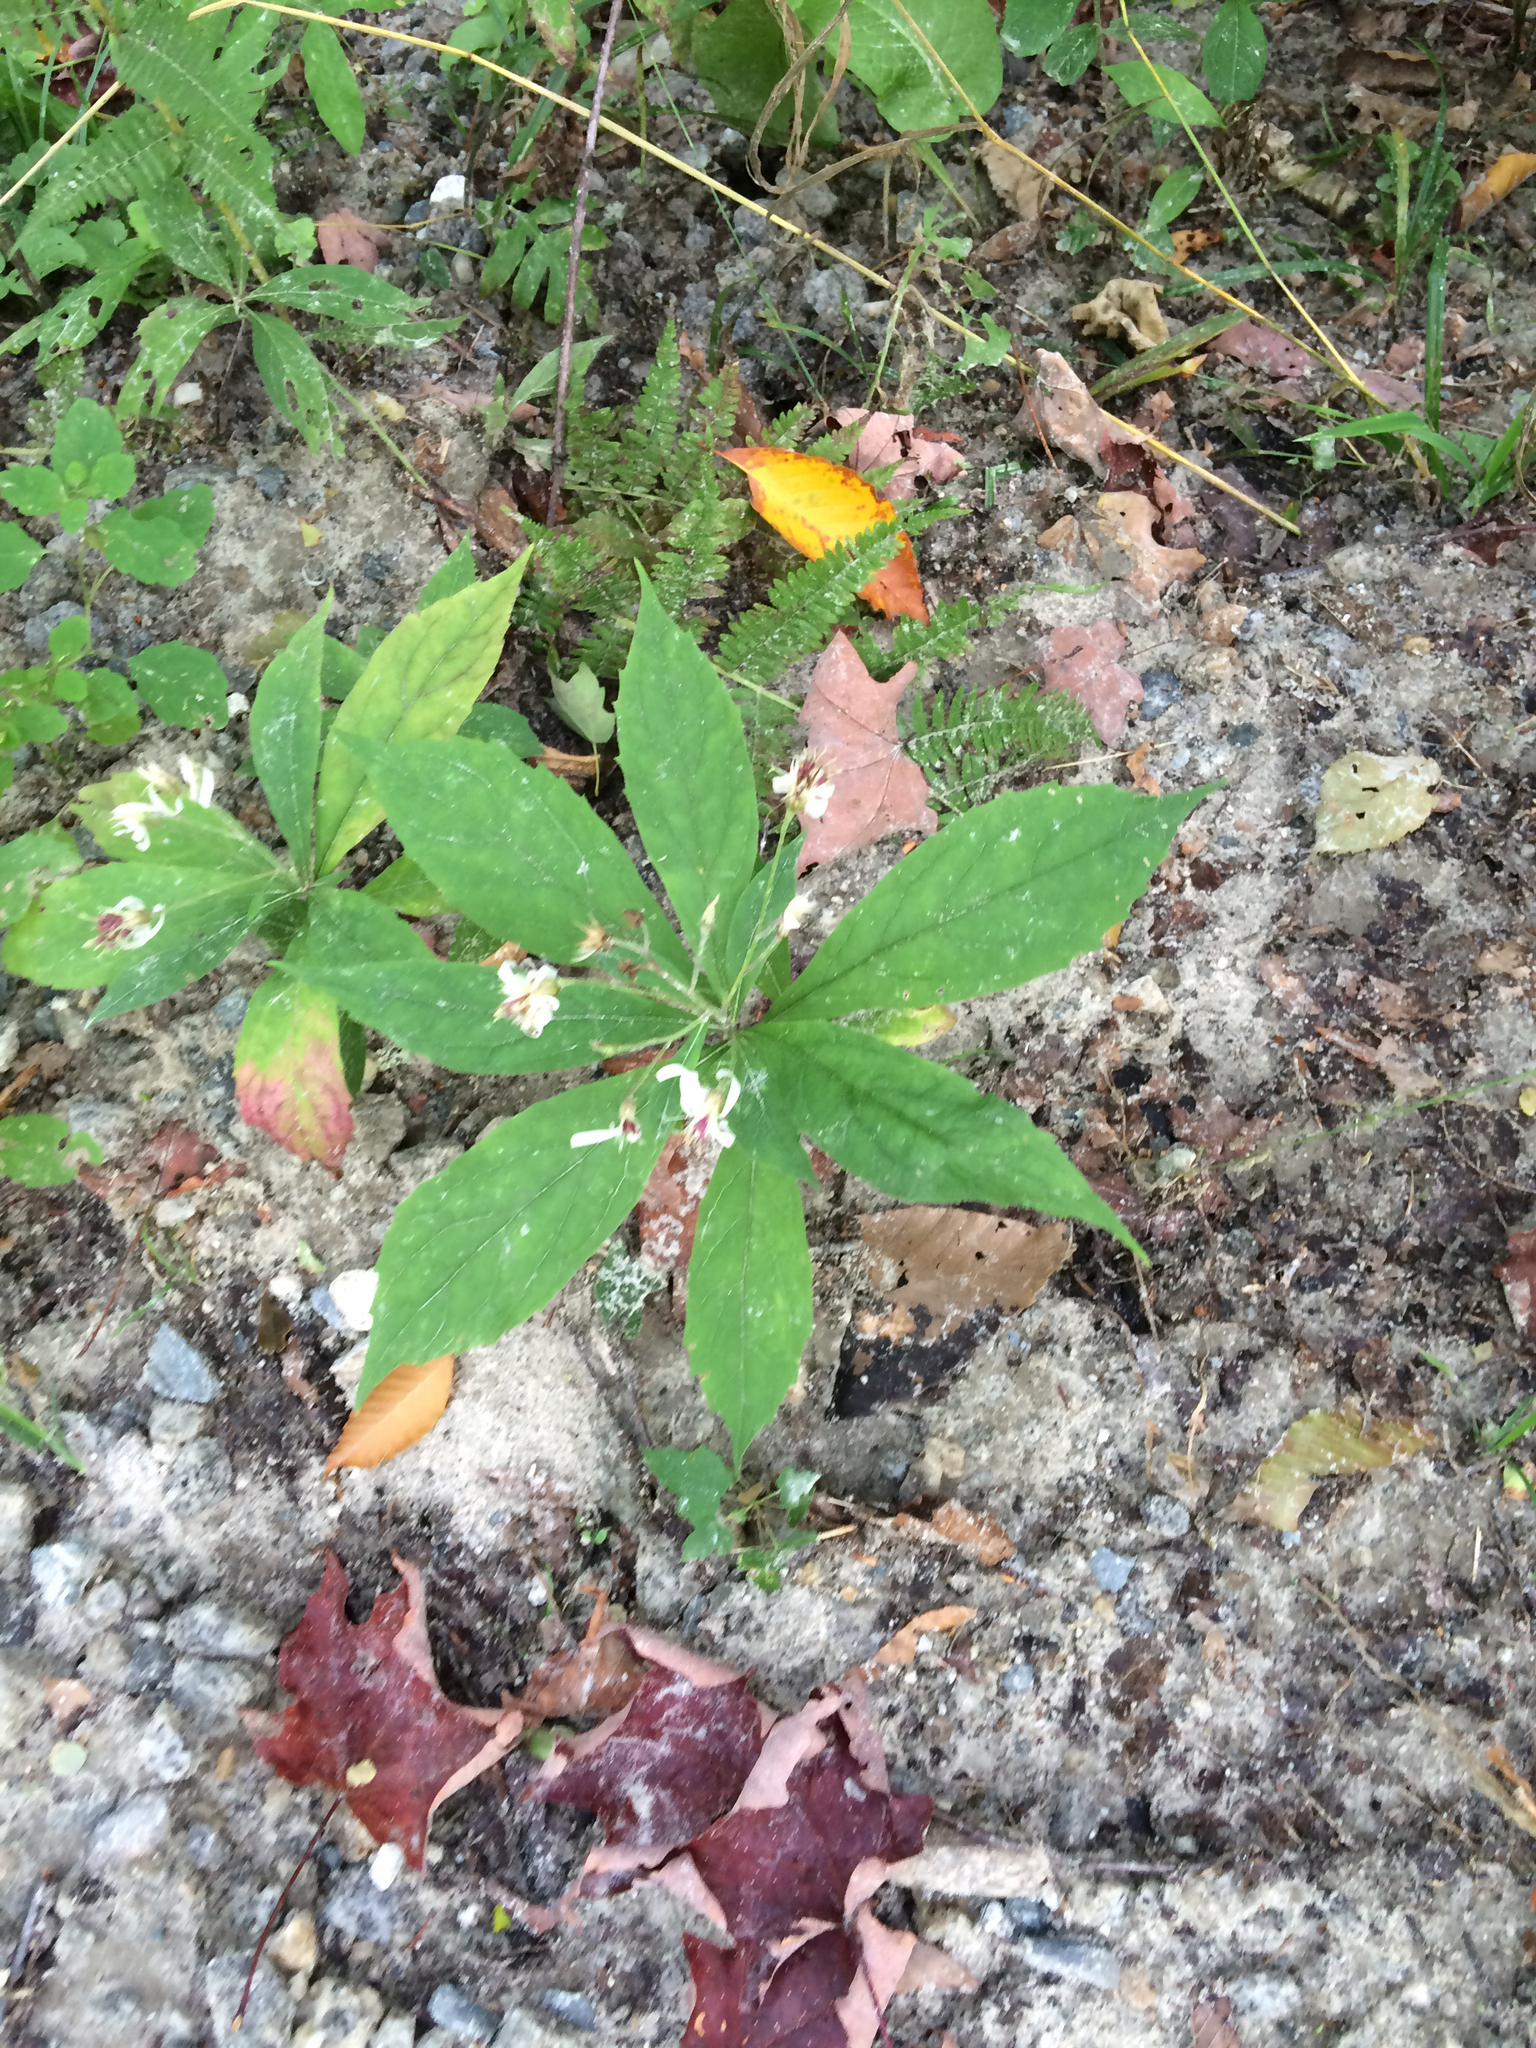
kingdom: Plantae
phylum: Tracheophyta
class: Magnoliopsida
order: Asterales
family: Asteraceae
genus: Oclemena
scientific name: Oclemena acuminata
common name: Mountain aster
